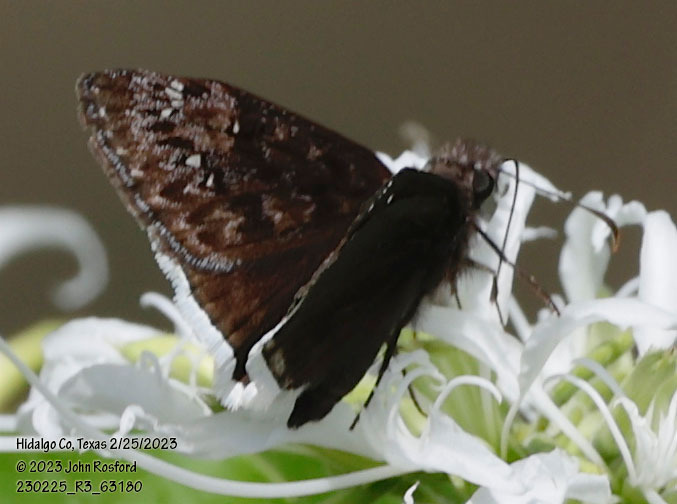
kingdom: Animalia
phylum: Arthropoda
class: Insecta
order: Lepidoptera
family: Hesperiidae
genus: Erynnis
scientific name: Erynnis tristis
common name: Mournful duskywing
